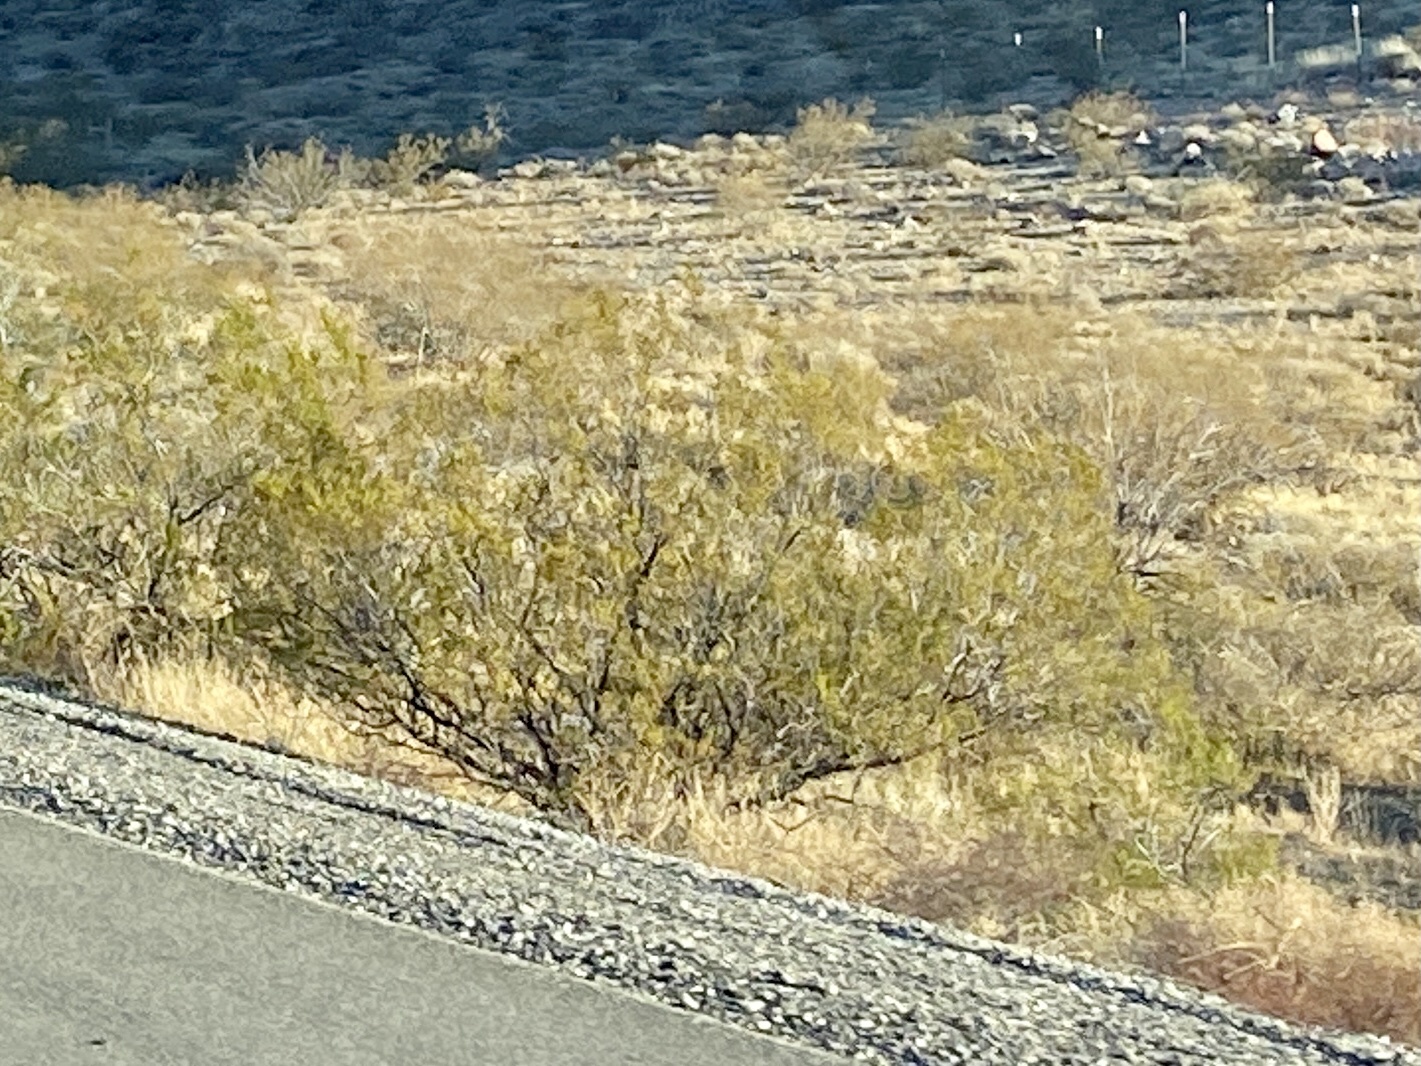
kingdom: Plantae
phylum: Tracheophyta
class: Magnoliopsida
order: Zygophyllales
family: Zygophyllaceae
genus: Larrea
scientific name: Larrea tridentata
